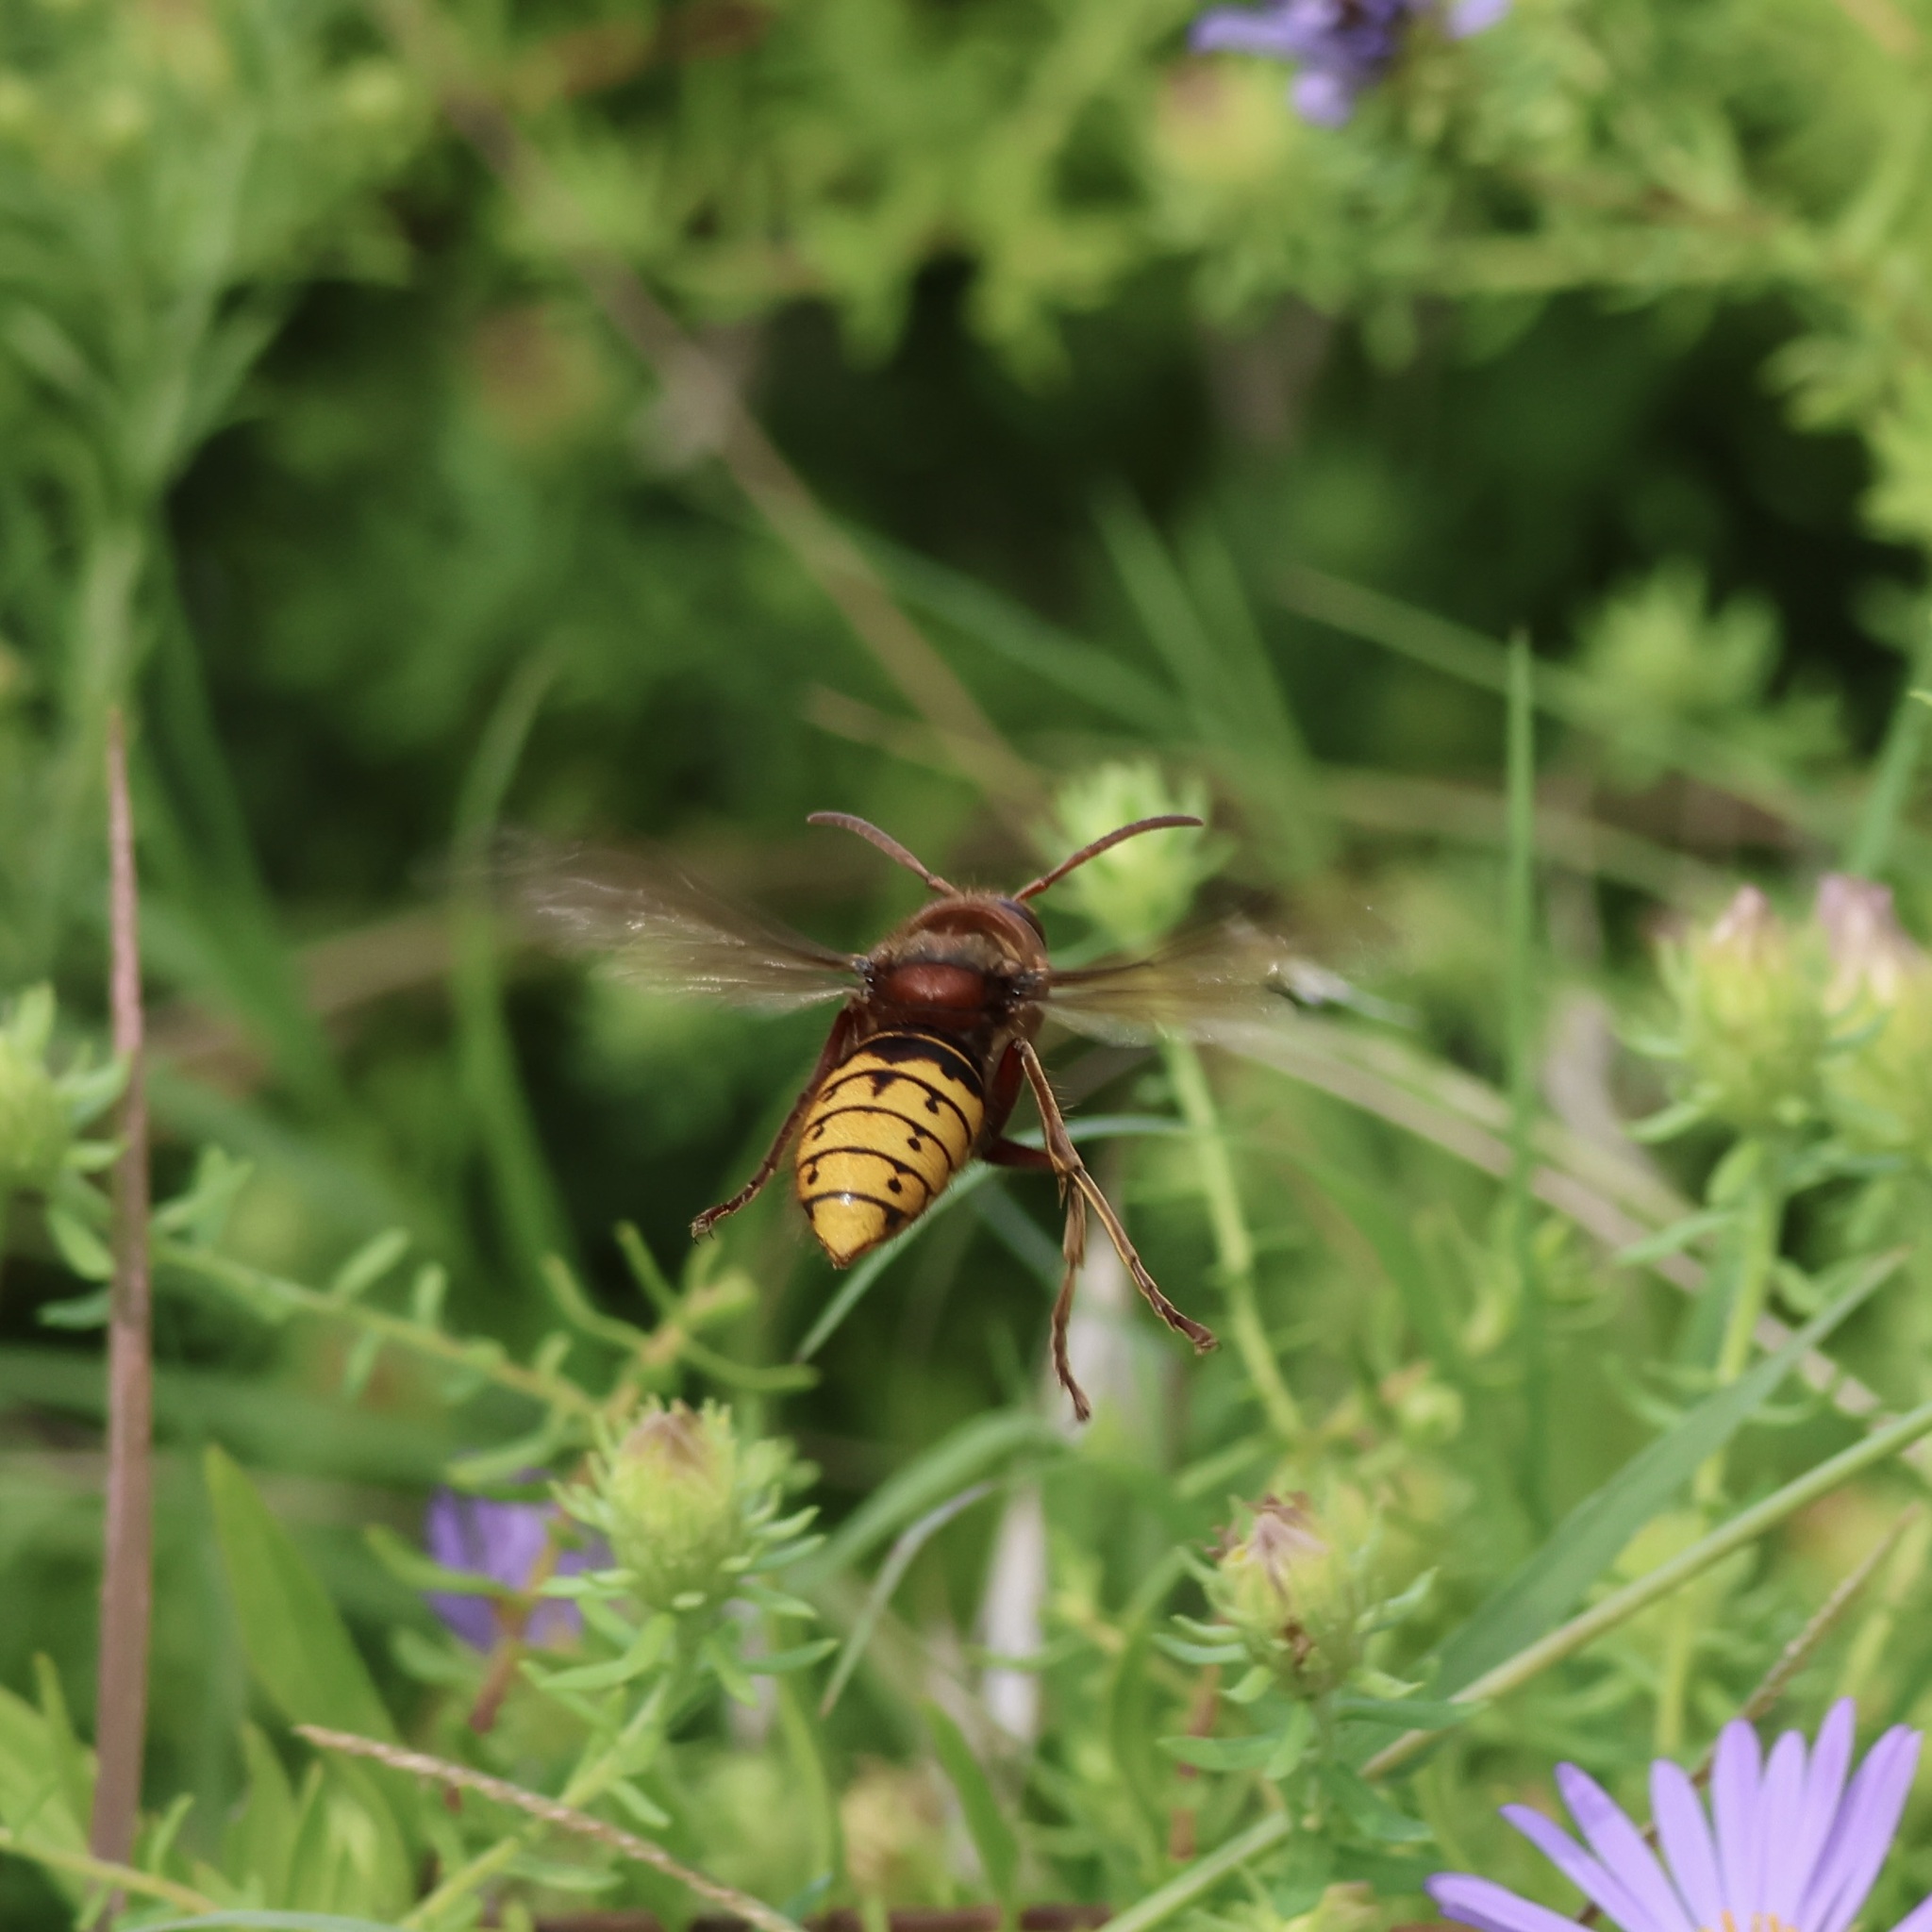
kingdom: Animalia
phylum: Arthropoda
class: Insecta
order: Hymenoptera
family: Vespidae
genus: Vespa
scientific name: Vespa crabro
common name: Hornet
